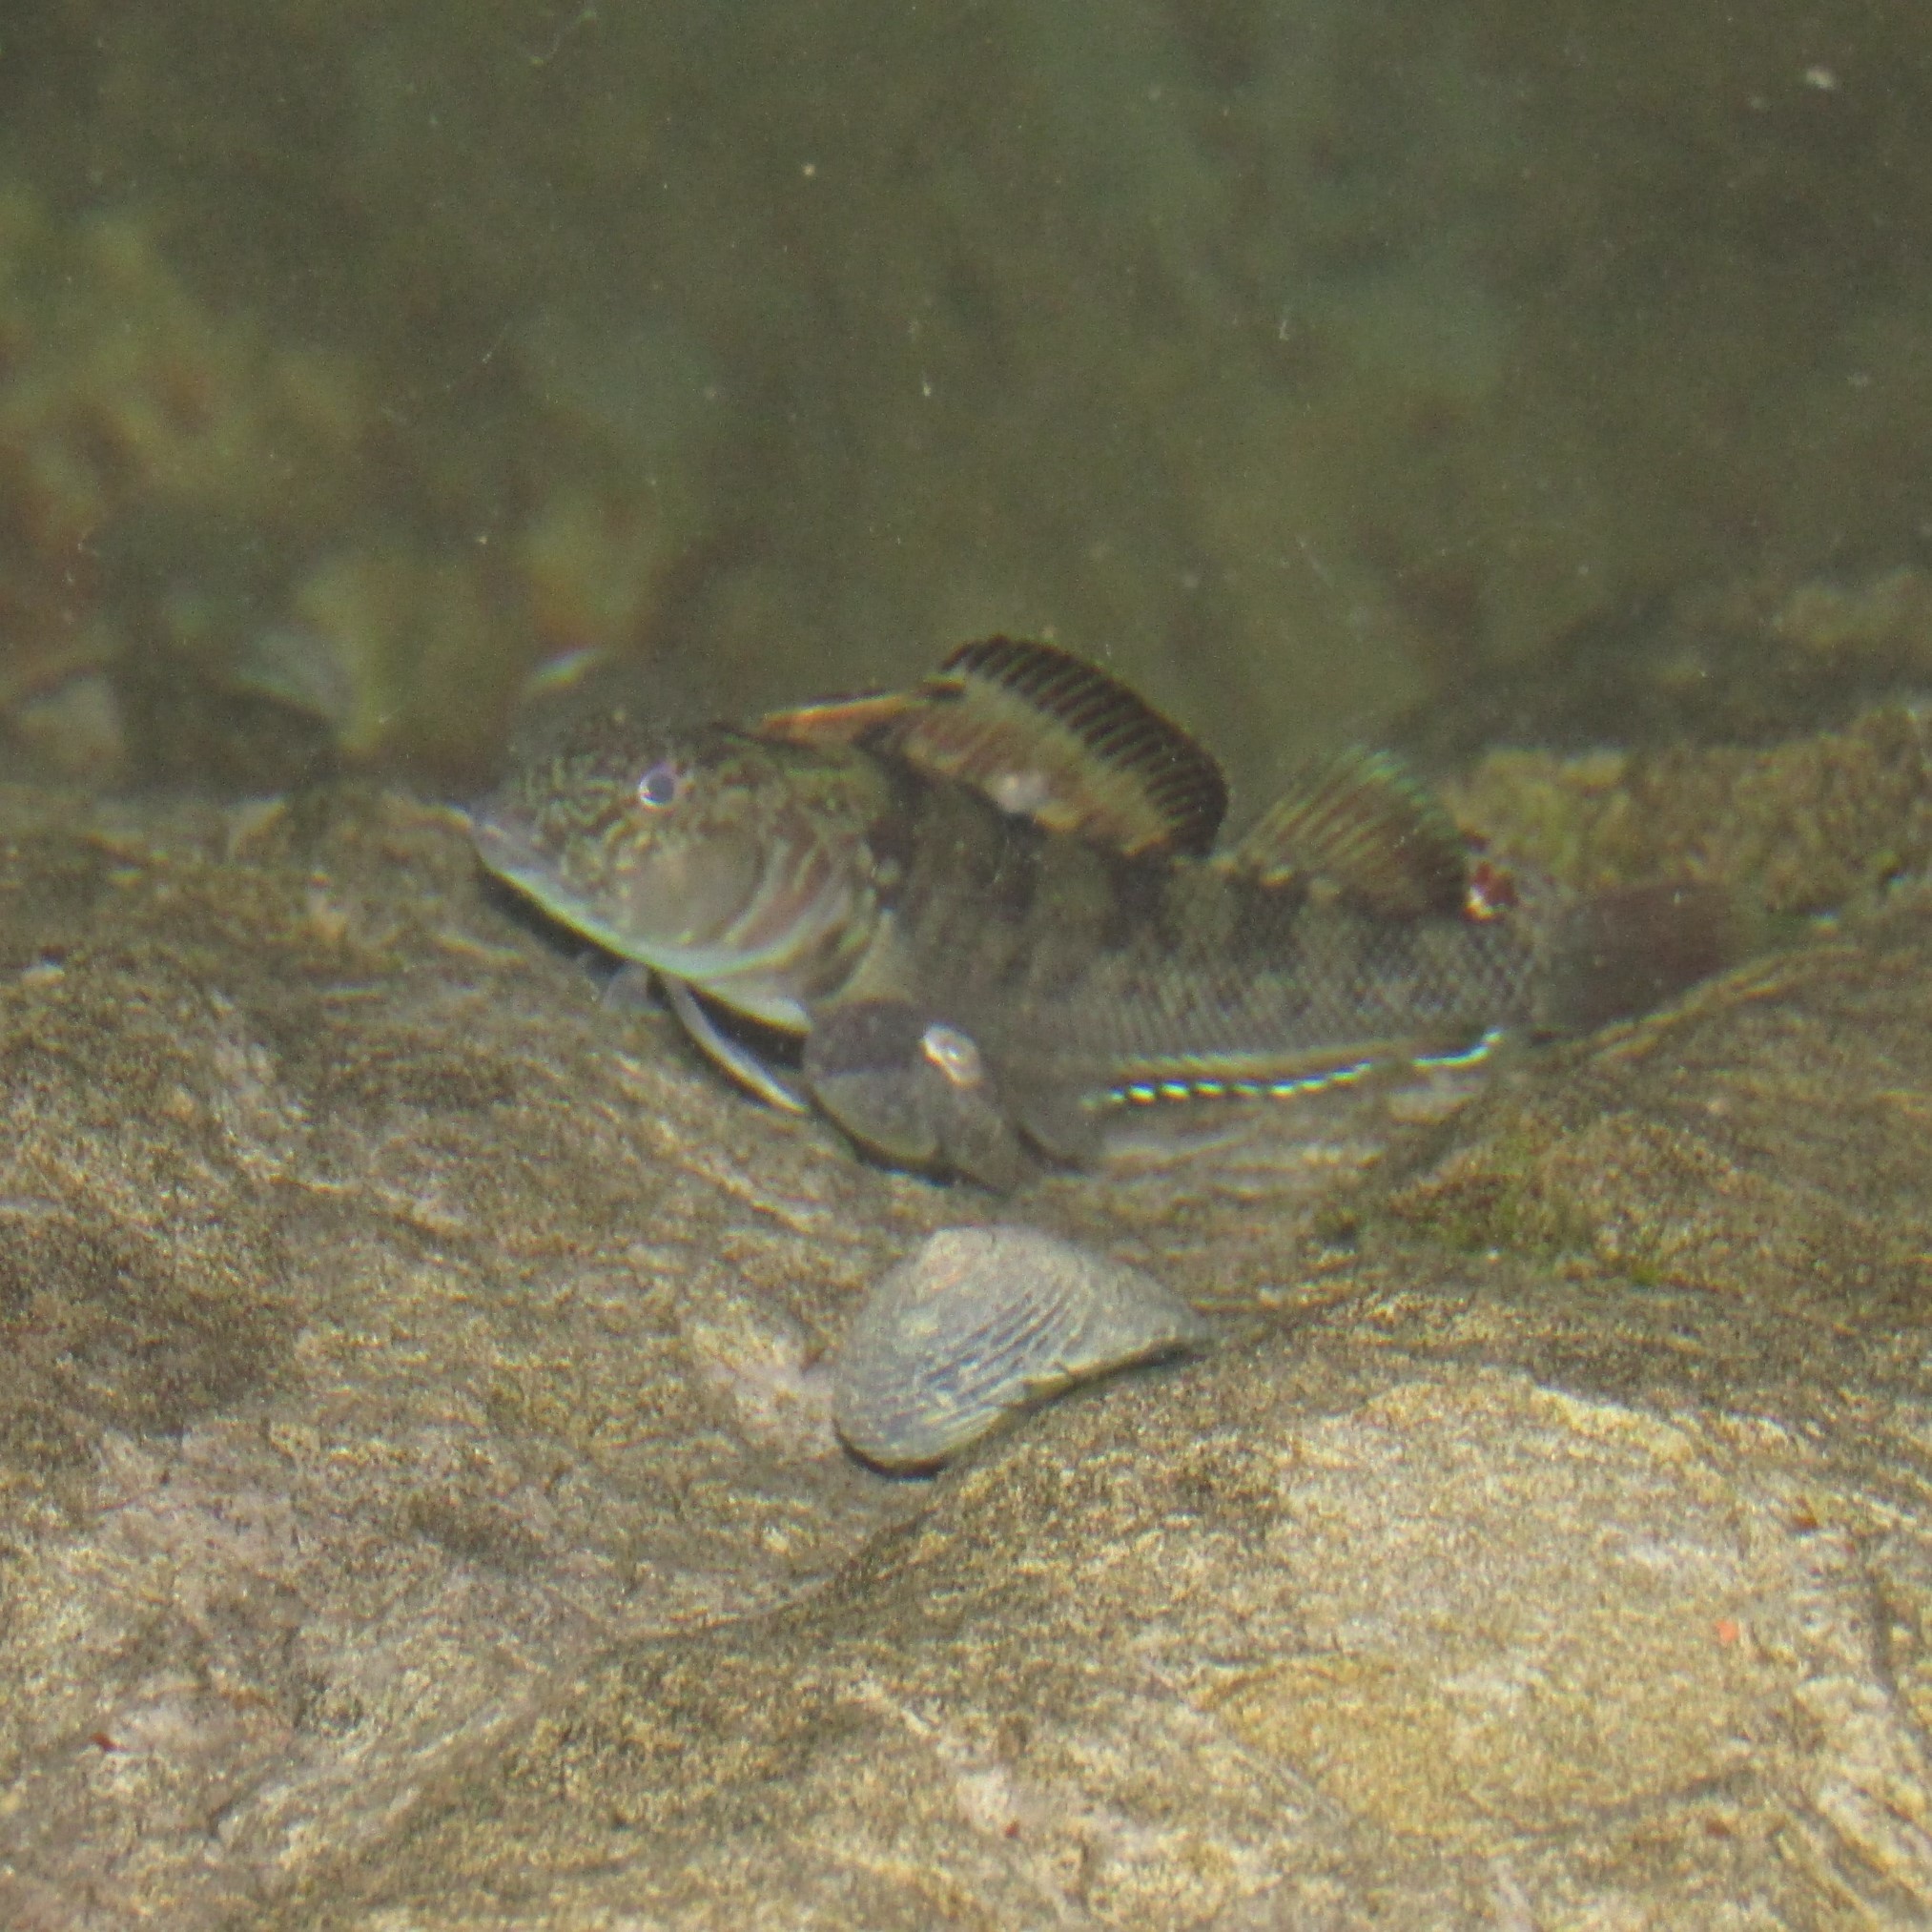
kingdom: Animalia
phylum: Chordata
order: Perciformes
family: Tripterygiidae
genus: Forsterygion
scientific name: Forsterygion nigripenne
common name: Cockabully
